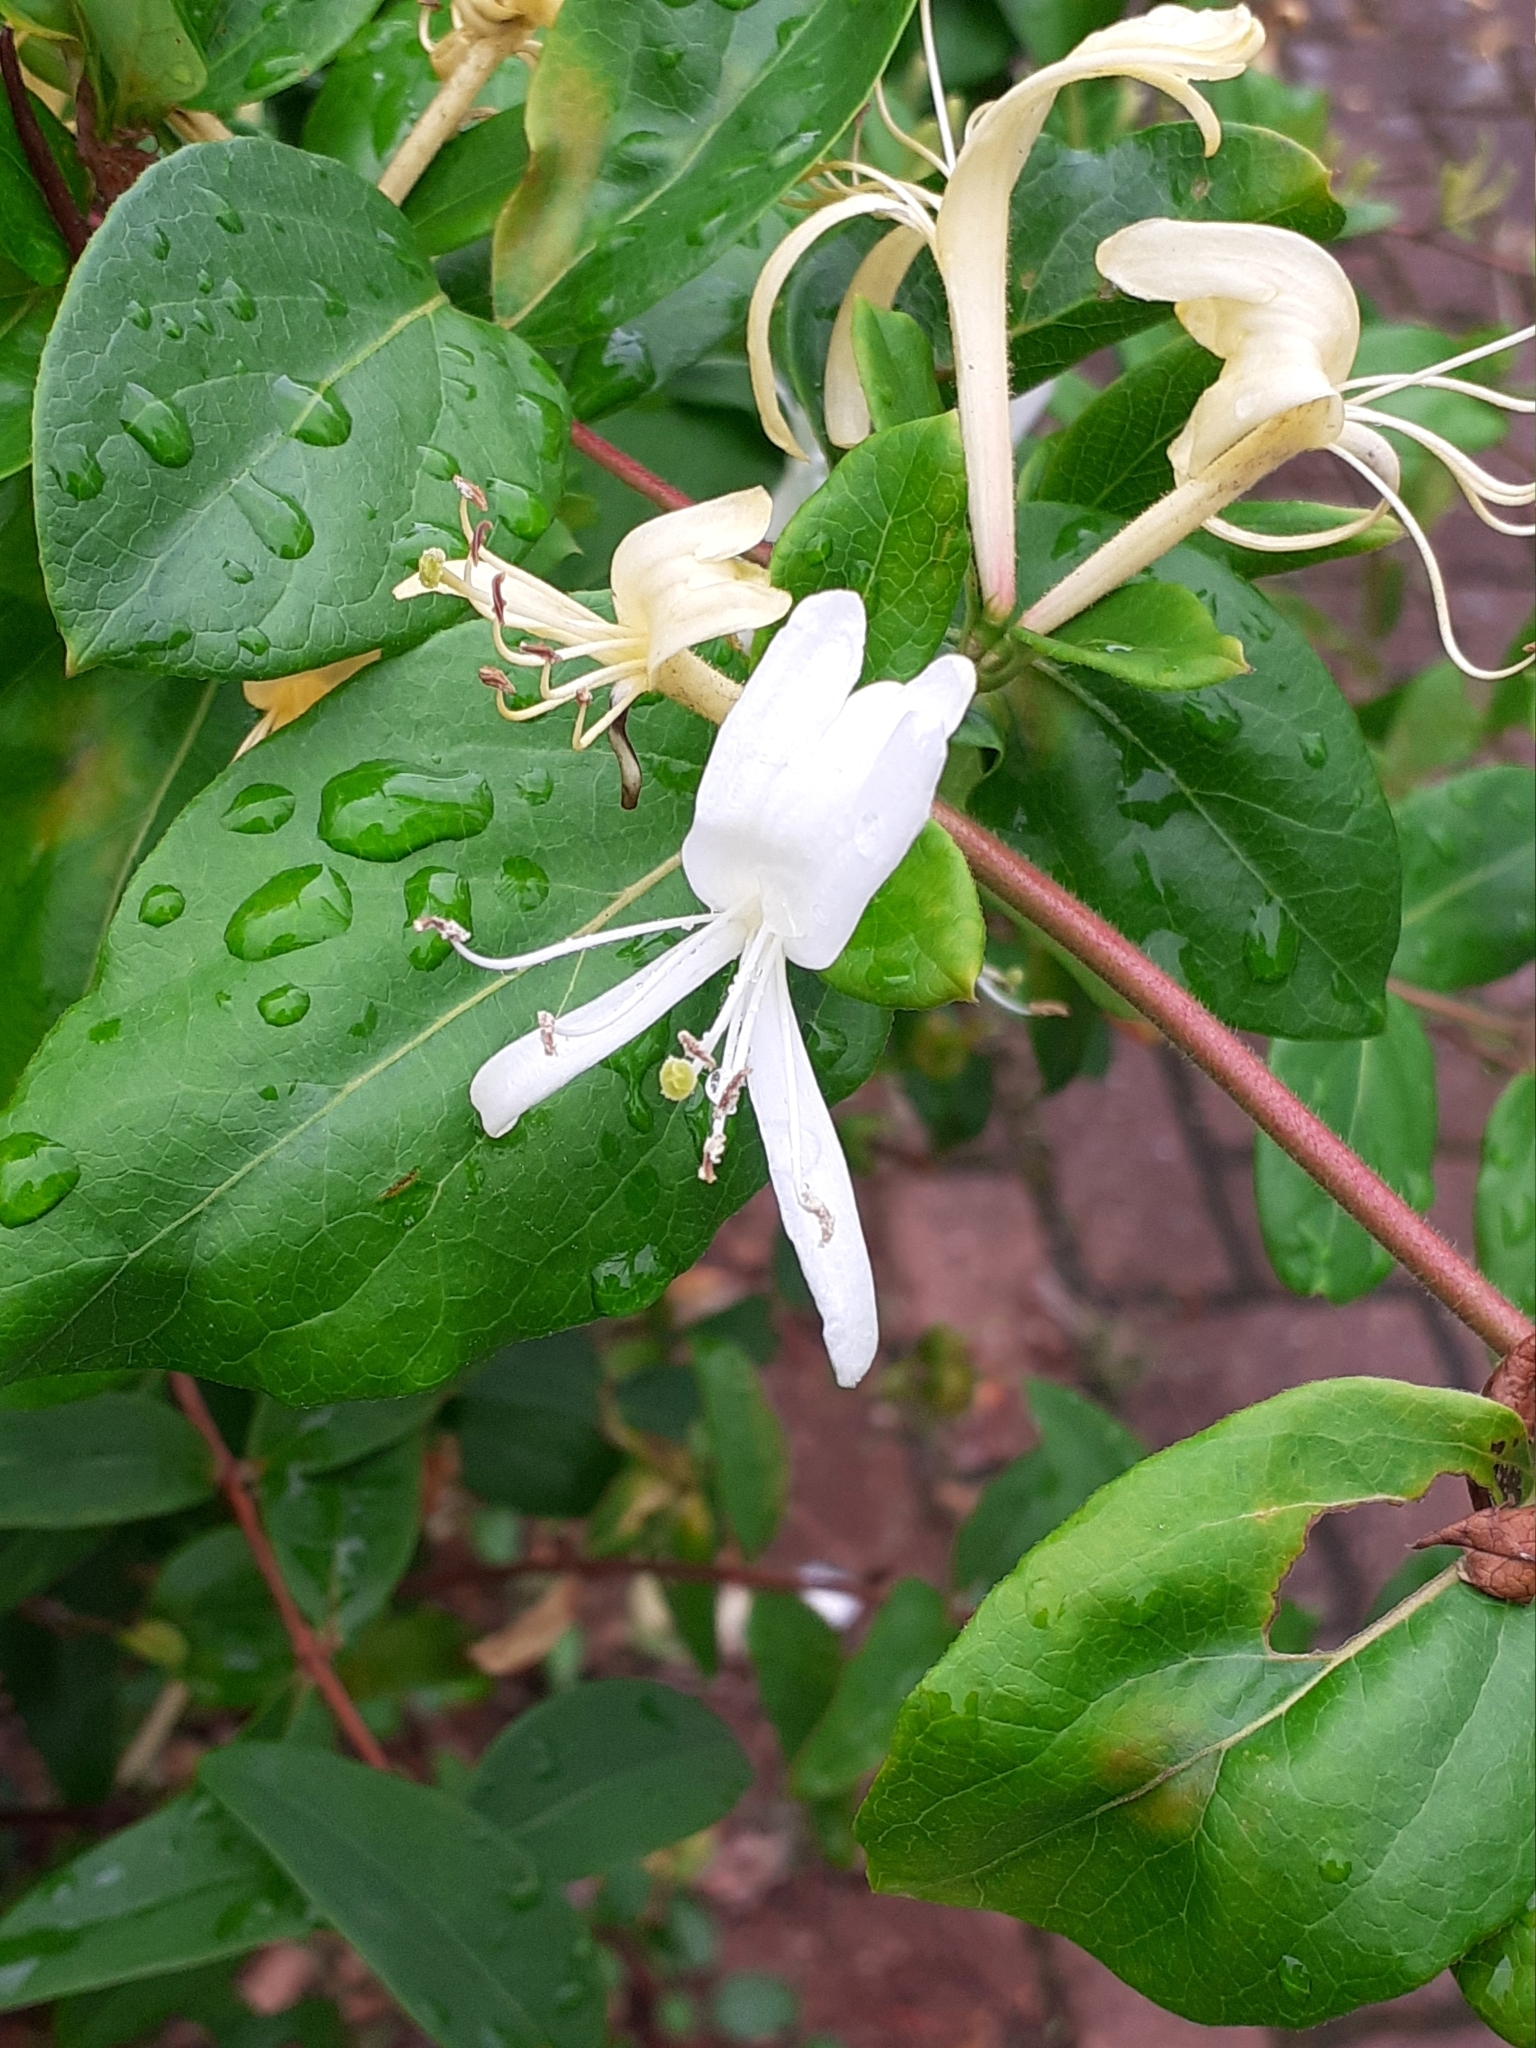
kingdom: Plantae
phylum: Tracheophyta
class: Magnoliopsida
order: Dipsacales
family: Caprifoliaceae
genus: Lonicera
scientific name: Lonicera japonica
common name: Japanese honeysuckle
